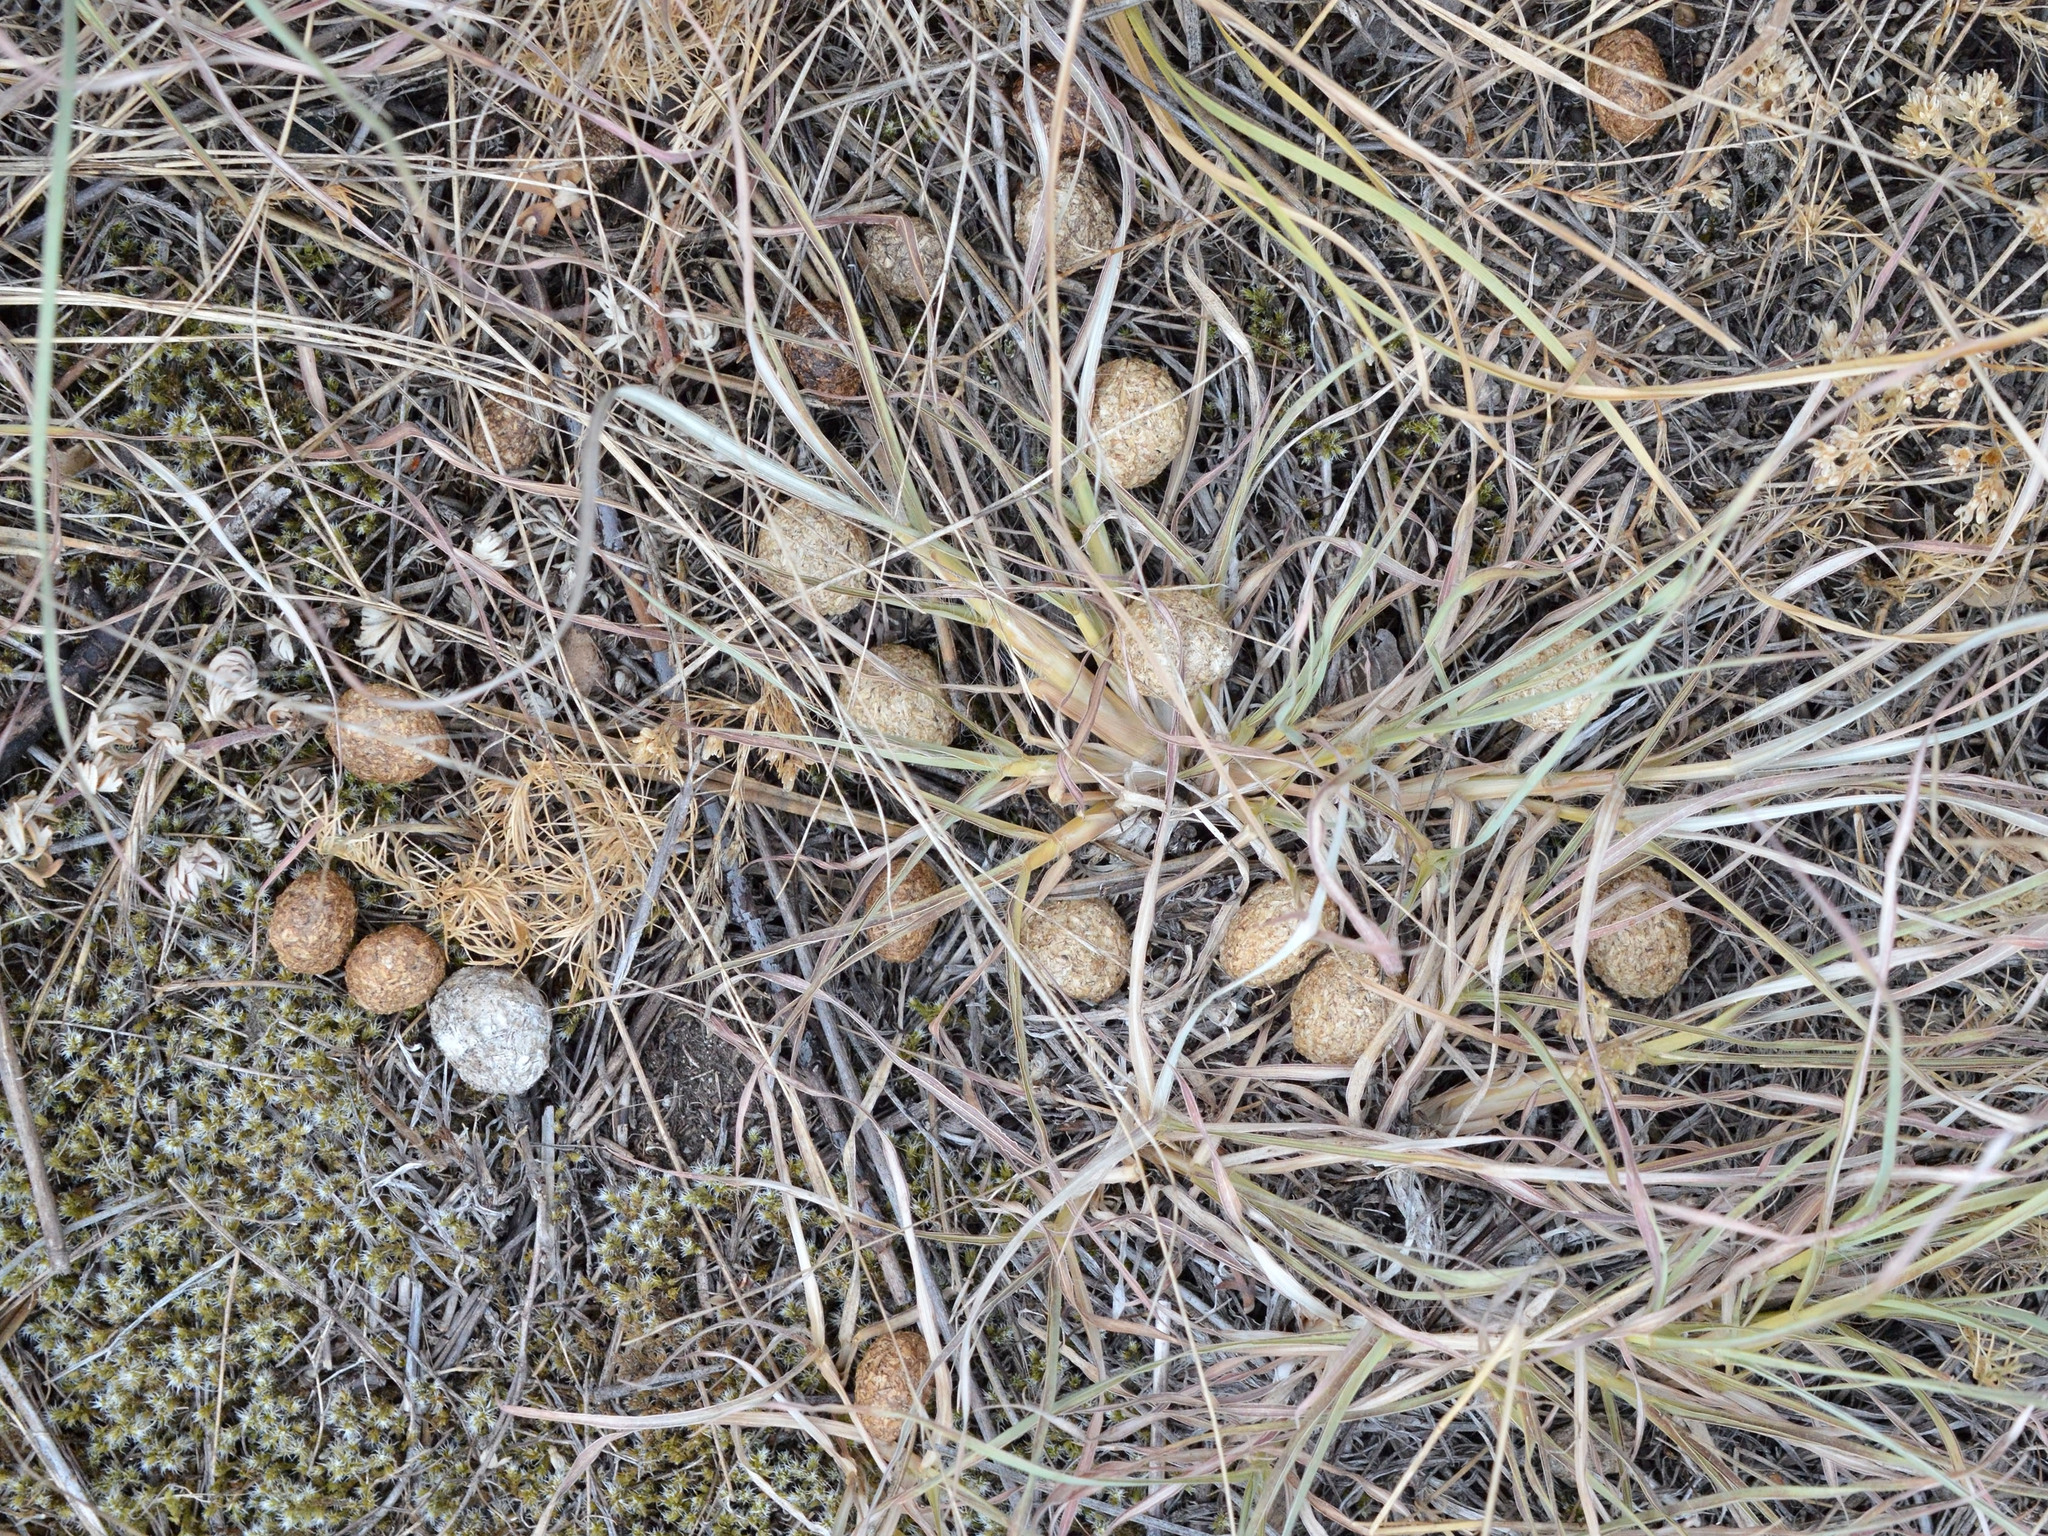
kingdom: Animalia
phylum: Chordata
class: Mammalia
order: Lagomorpha
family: Leporidae
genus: Lepus
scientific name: Lepus europaeus
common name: European hare
